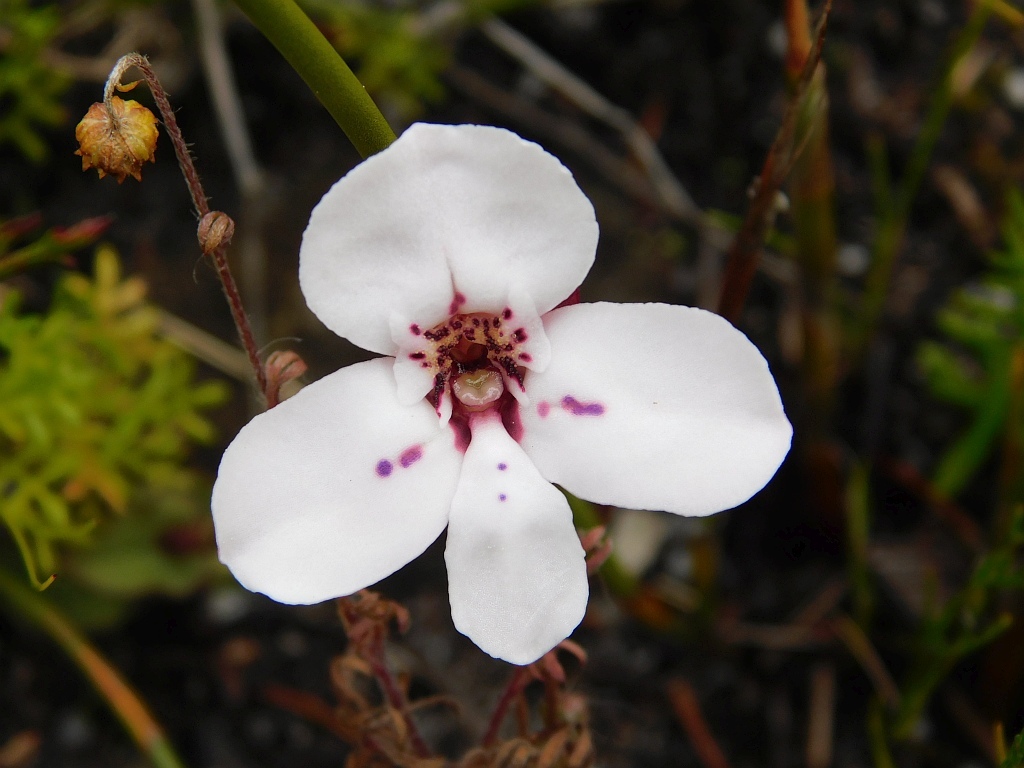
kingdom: Plantae
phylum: Tracheophyta
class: Liliopsida
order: Asparagales
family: Orchidaceae
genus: Disa
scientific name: Disa fasciata
